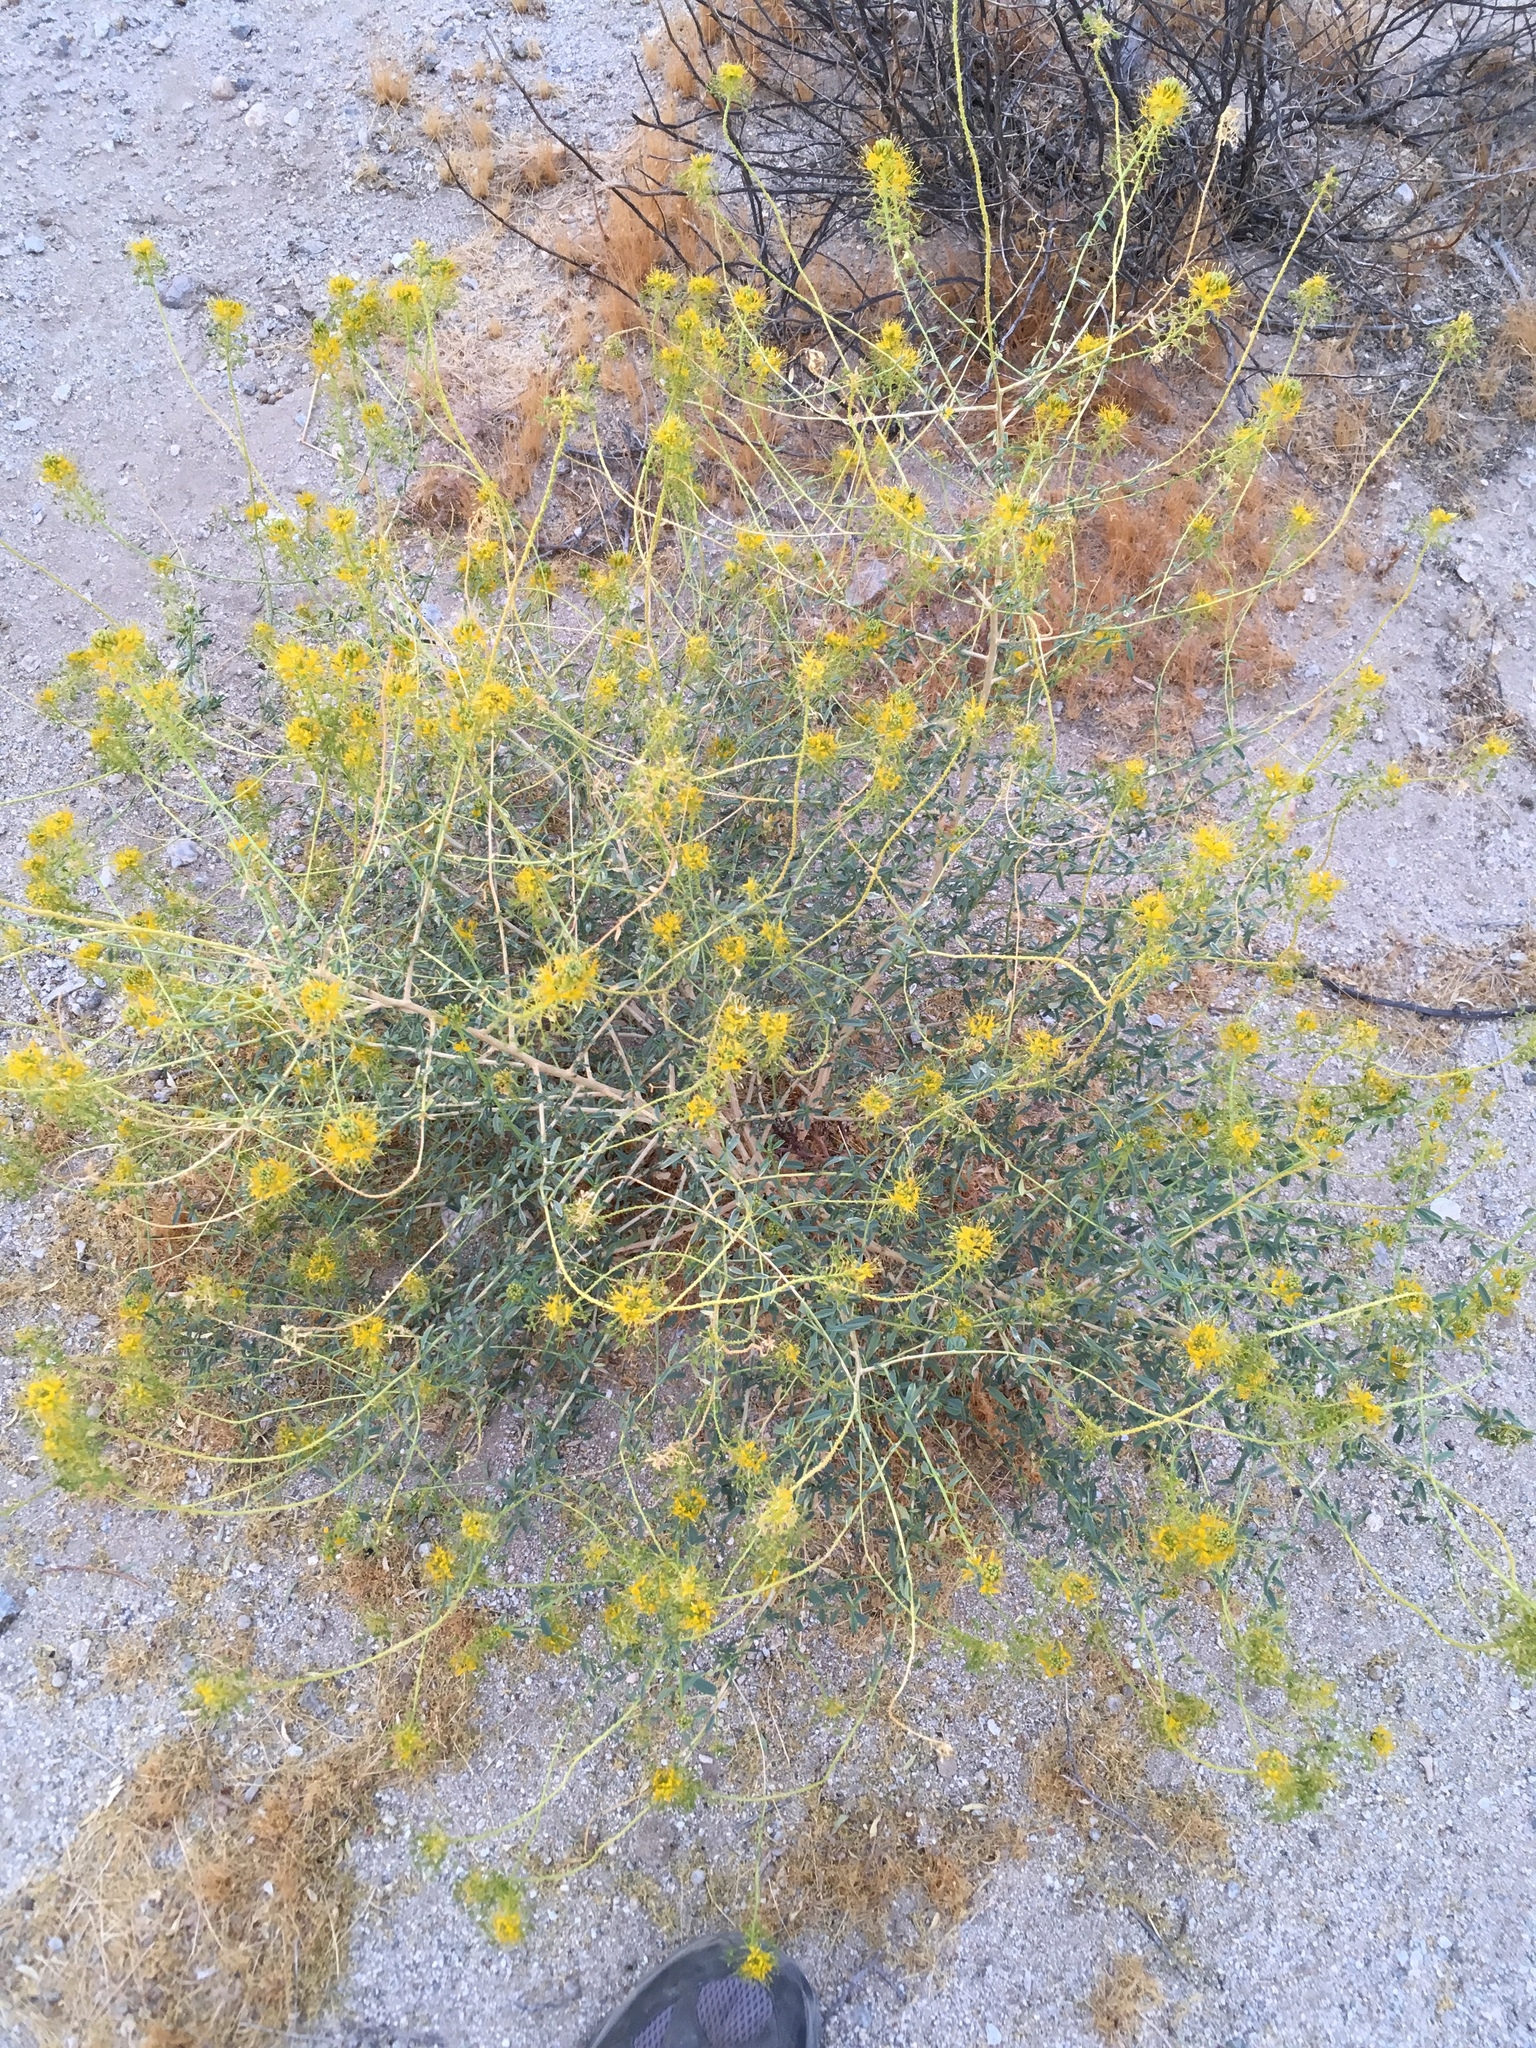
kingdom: Plantae
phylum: Tracheophyta
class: Magnoliopsida
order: Brassicales
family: Cleomaceae
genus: Cleomella
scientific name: Cleomella palmeri
